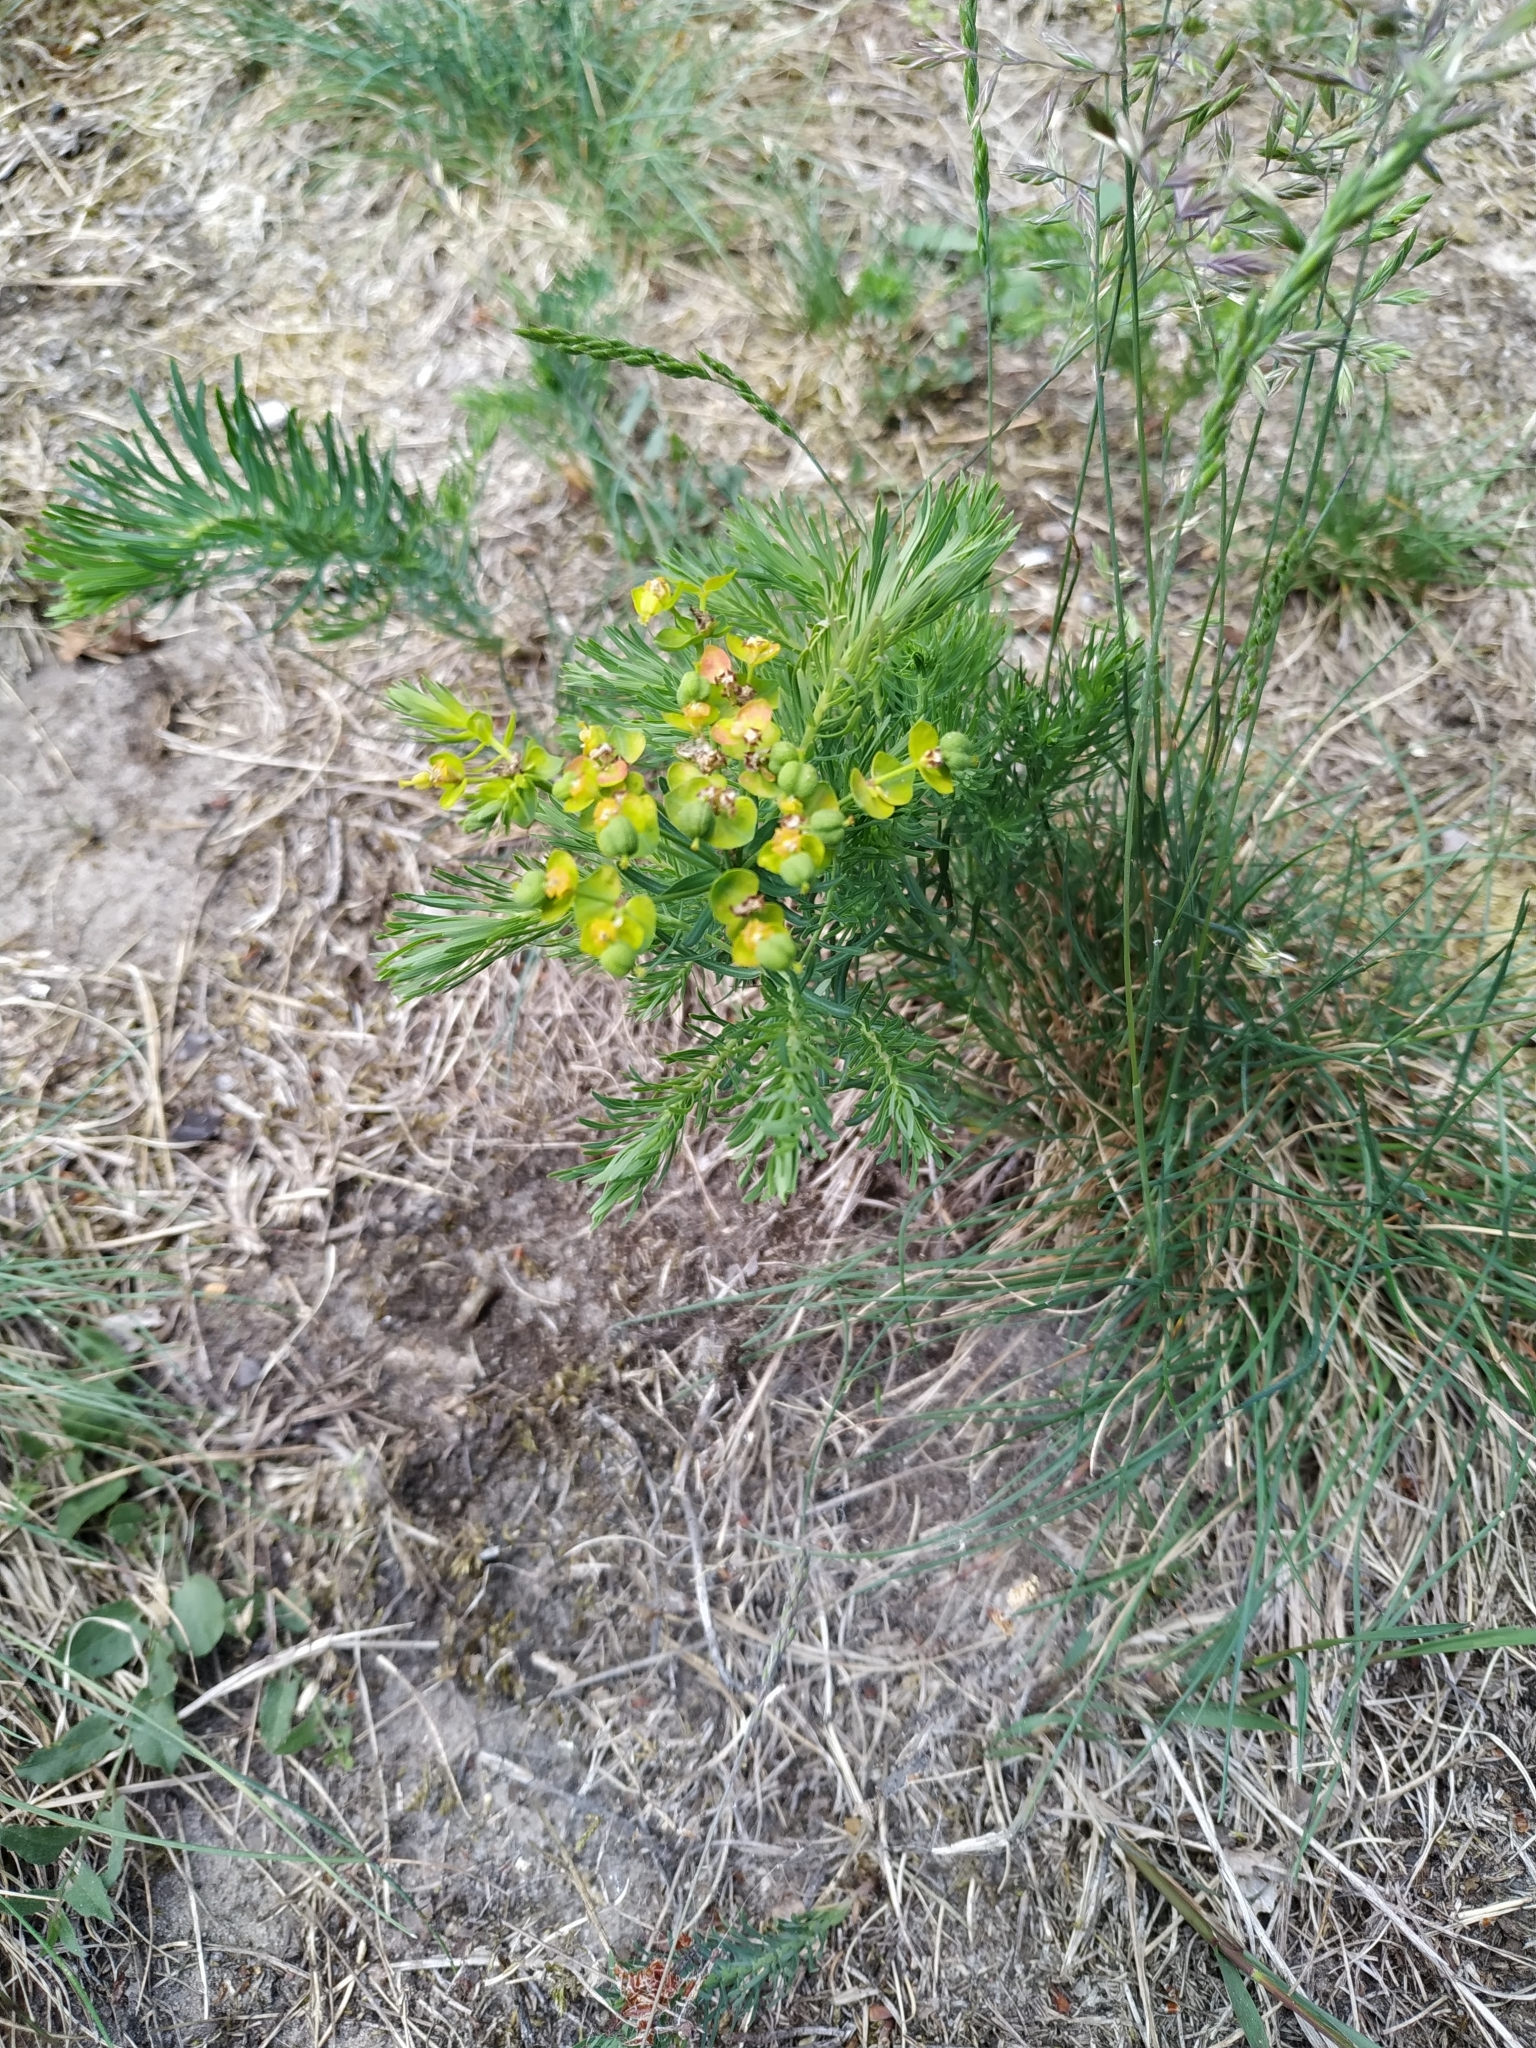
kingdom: Plantae
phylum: Tracheophyta
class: Magnoliopsida
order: Malpighiales
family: Euphorbiaceae
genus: Euphorbia
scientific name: Euphorbia cyparissias
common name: Cypress spurge
